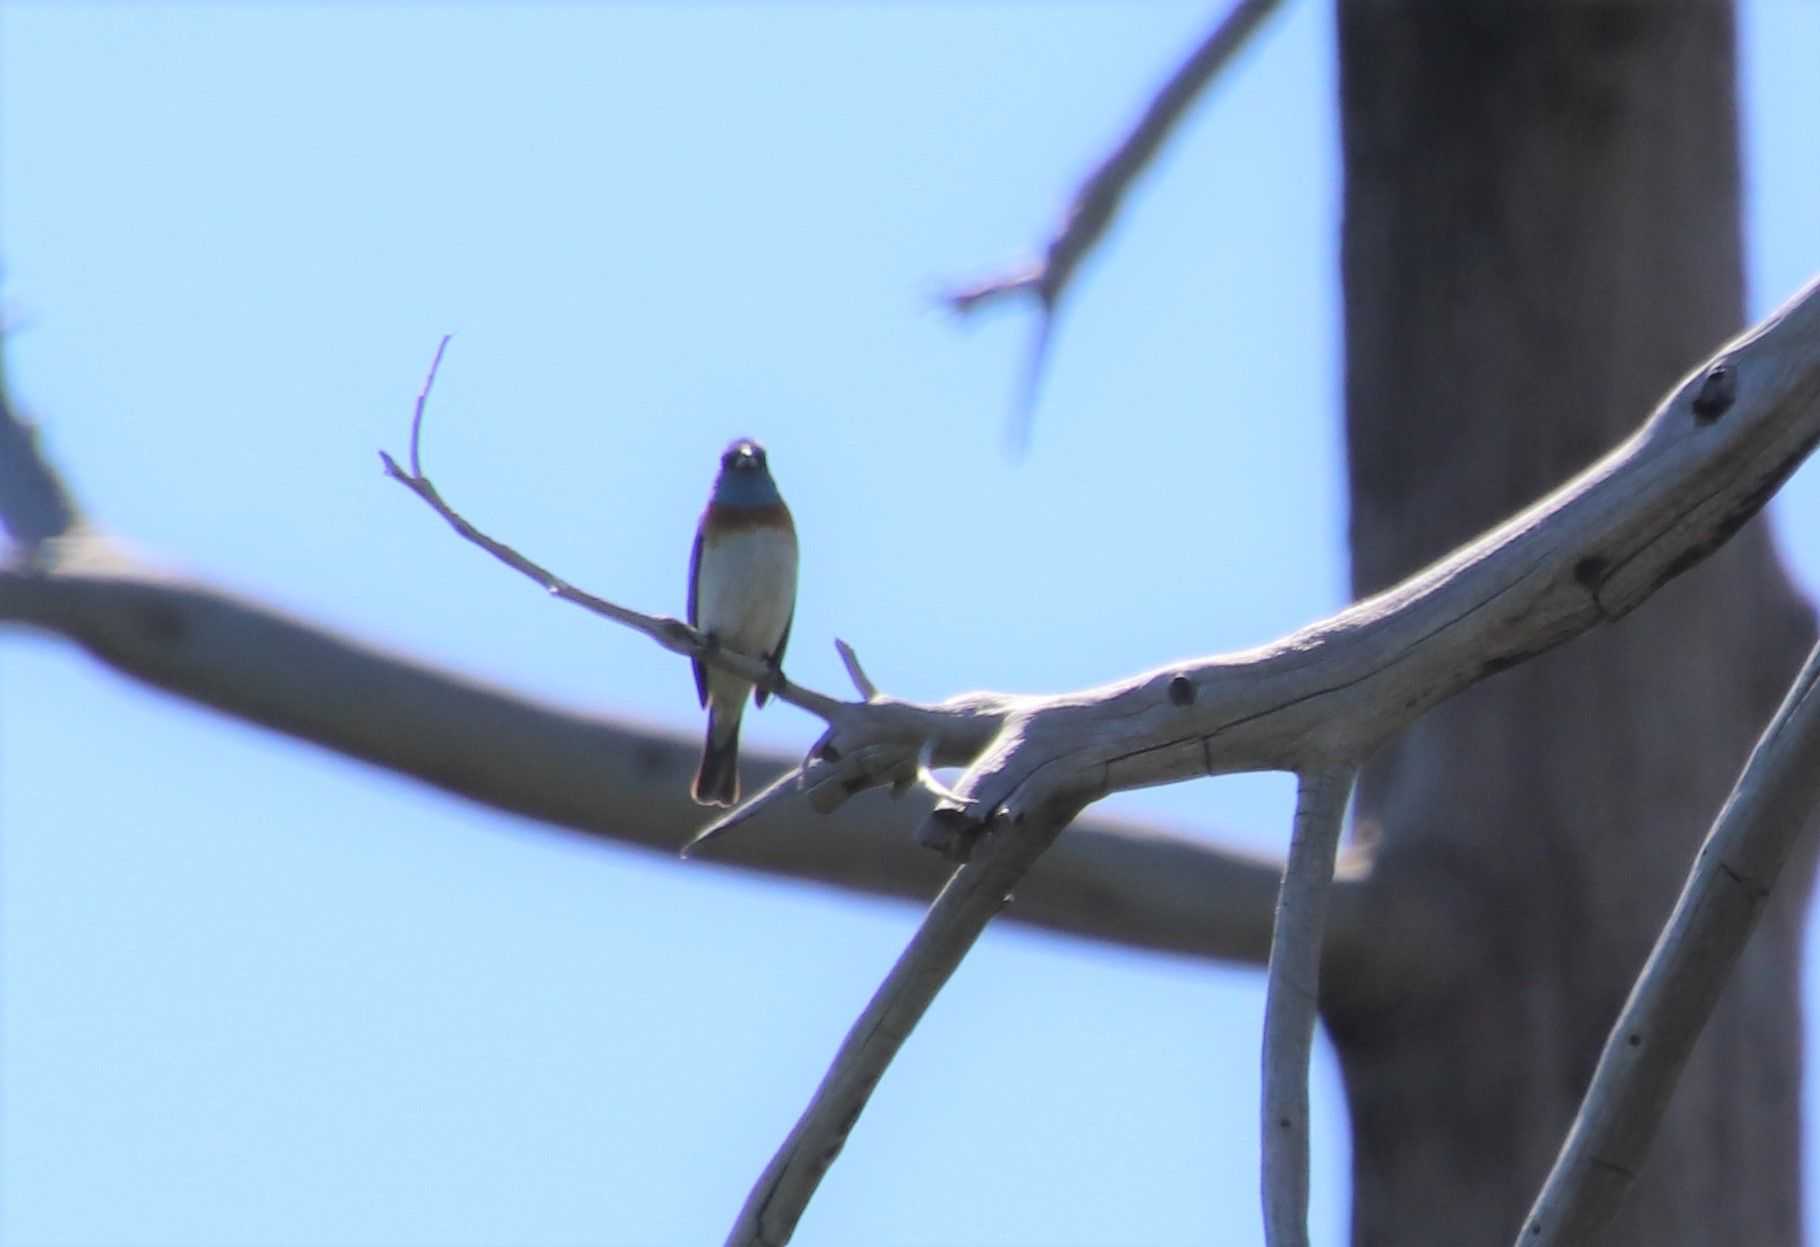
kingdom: Animalia
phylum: Chordata
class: Aves
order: Passeriformes
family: Cardinalidae
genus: Passerina
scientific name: Passerina amoena
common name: Lazuli bunting
